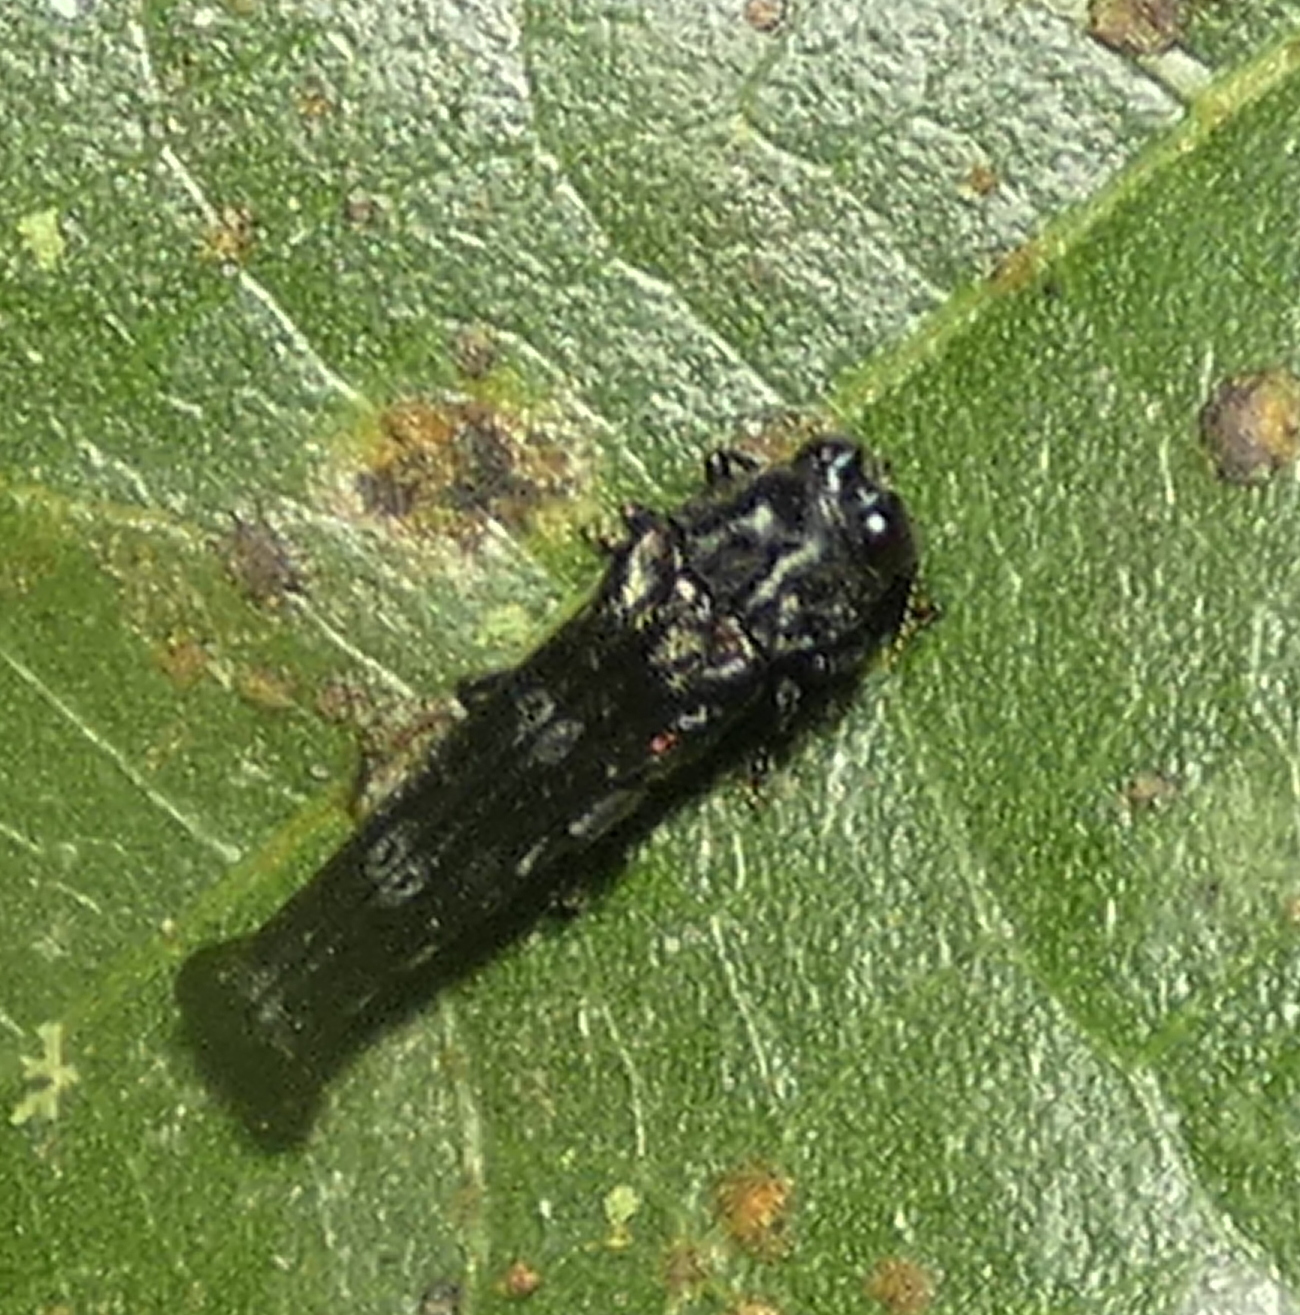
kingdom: Animalia
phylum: Arthropoda
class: Insecta
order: Coleoptera
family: Buprestidae
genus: Agrilus
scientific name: Agrilus pyrosurus
